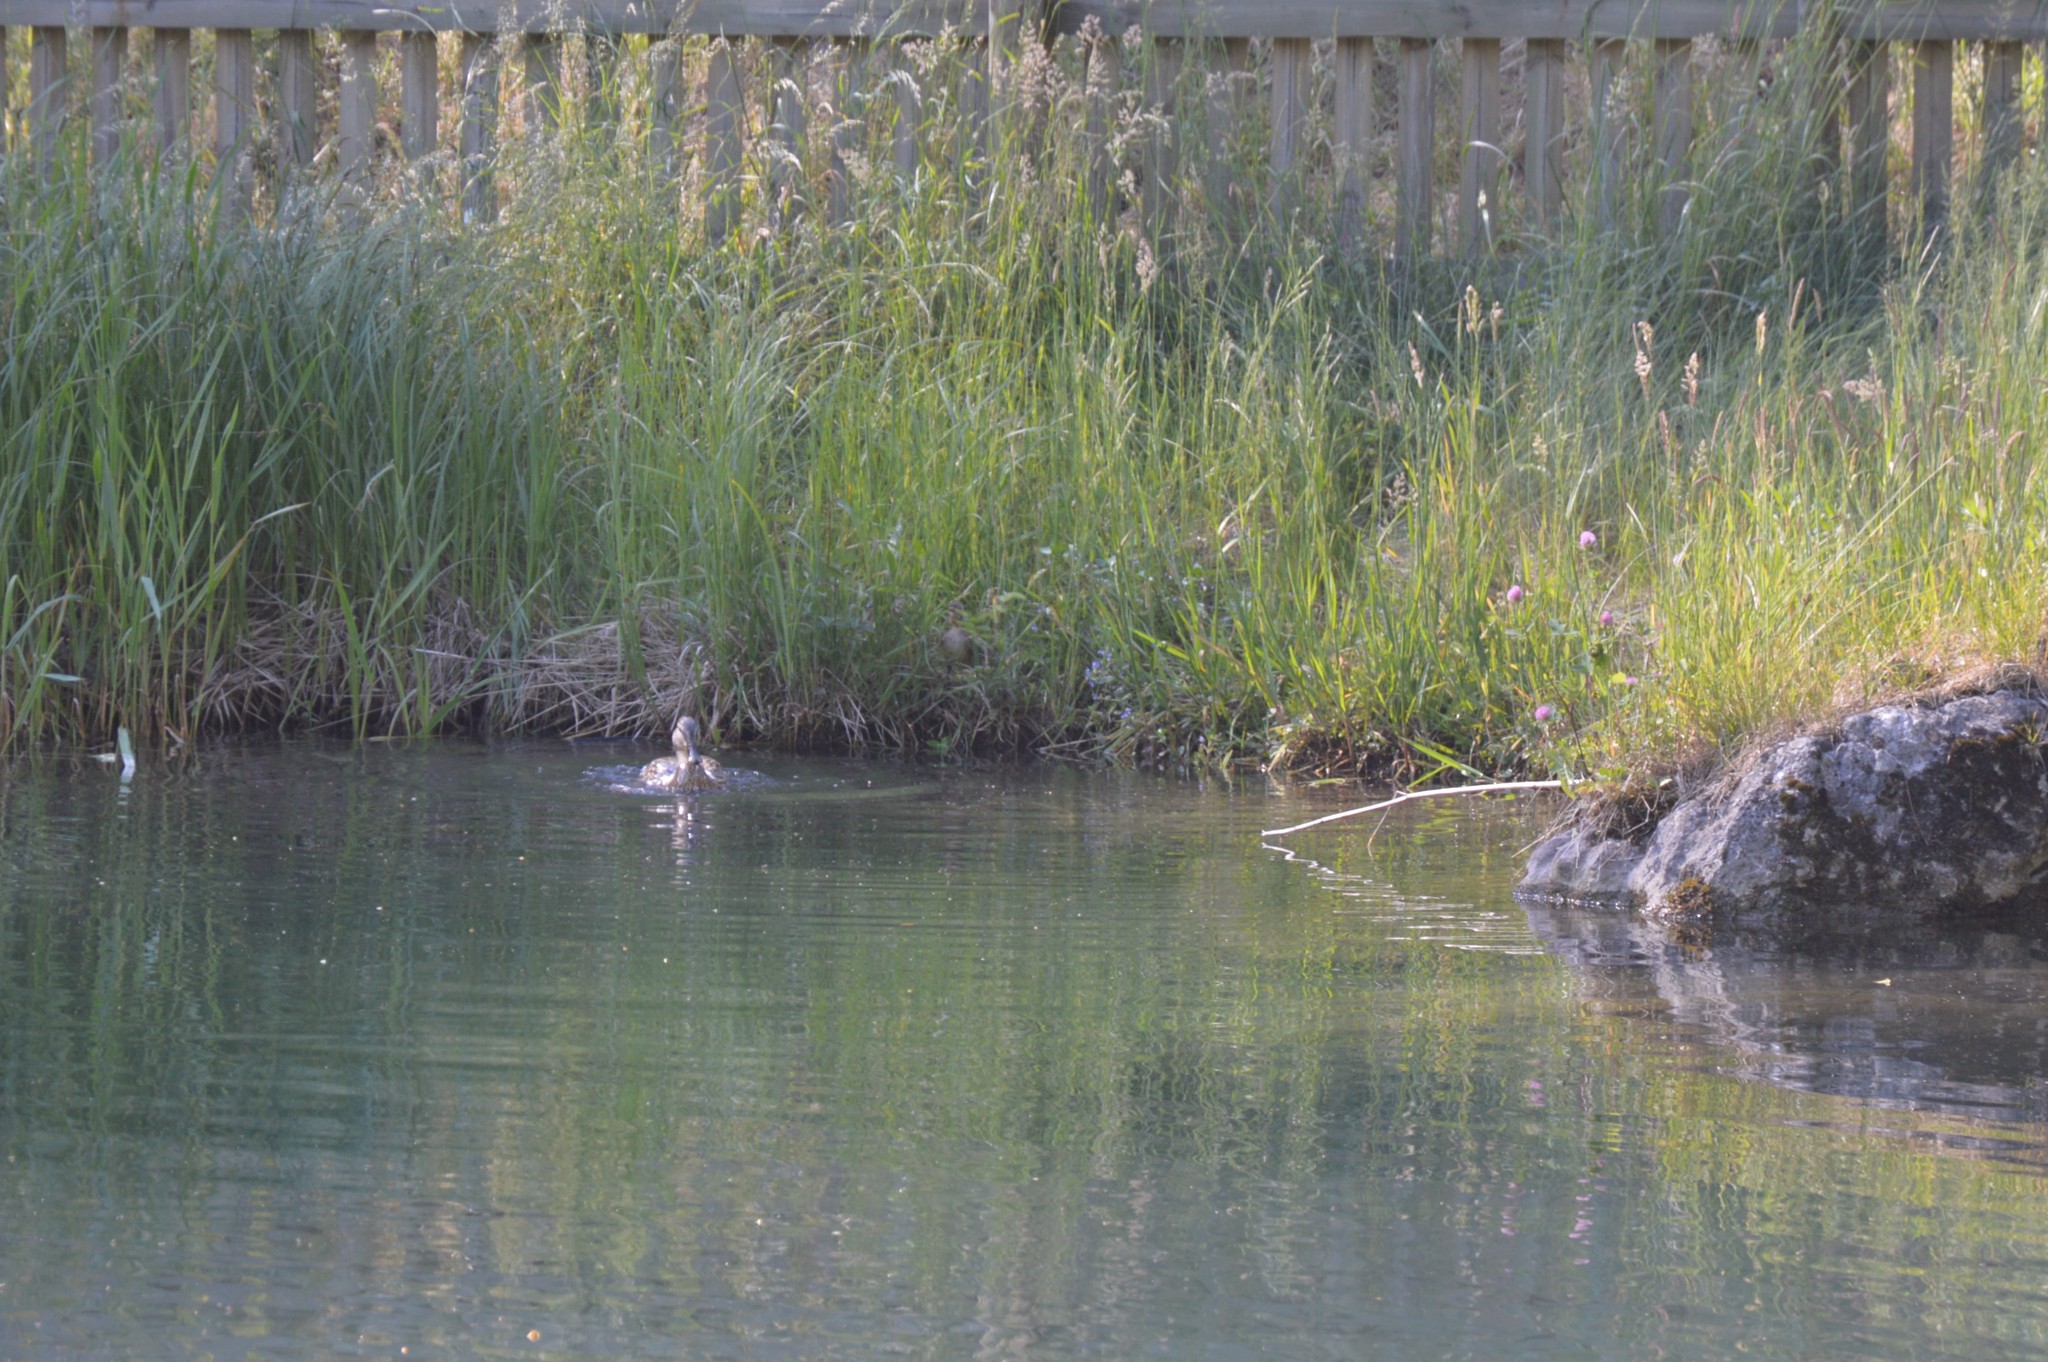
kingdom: Animalia
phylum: Chordata
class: Aves
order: Anseriformes
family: Anatidae
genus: Anas
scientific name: Anas platyrhynchos
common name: Mallard
